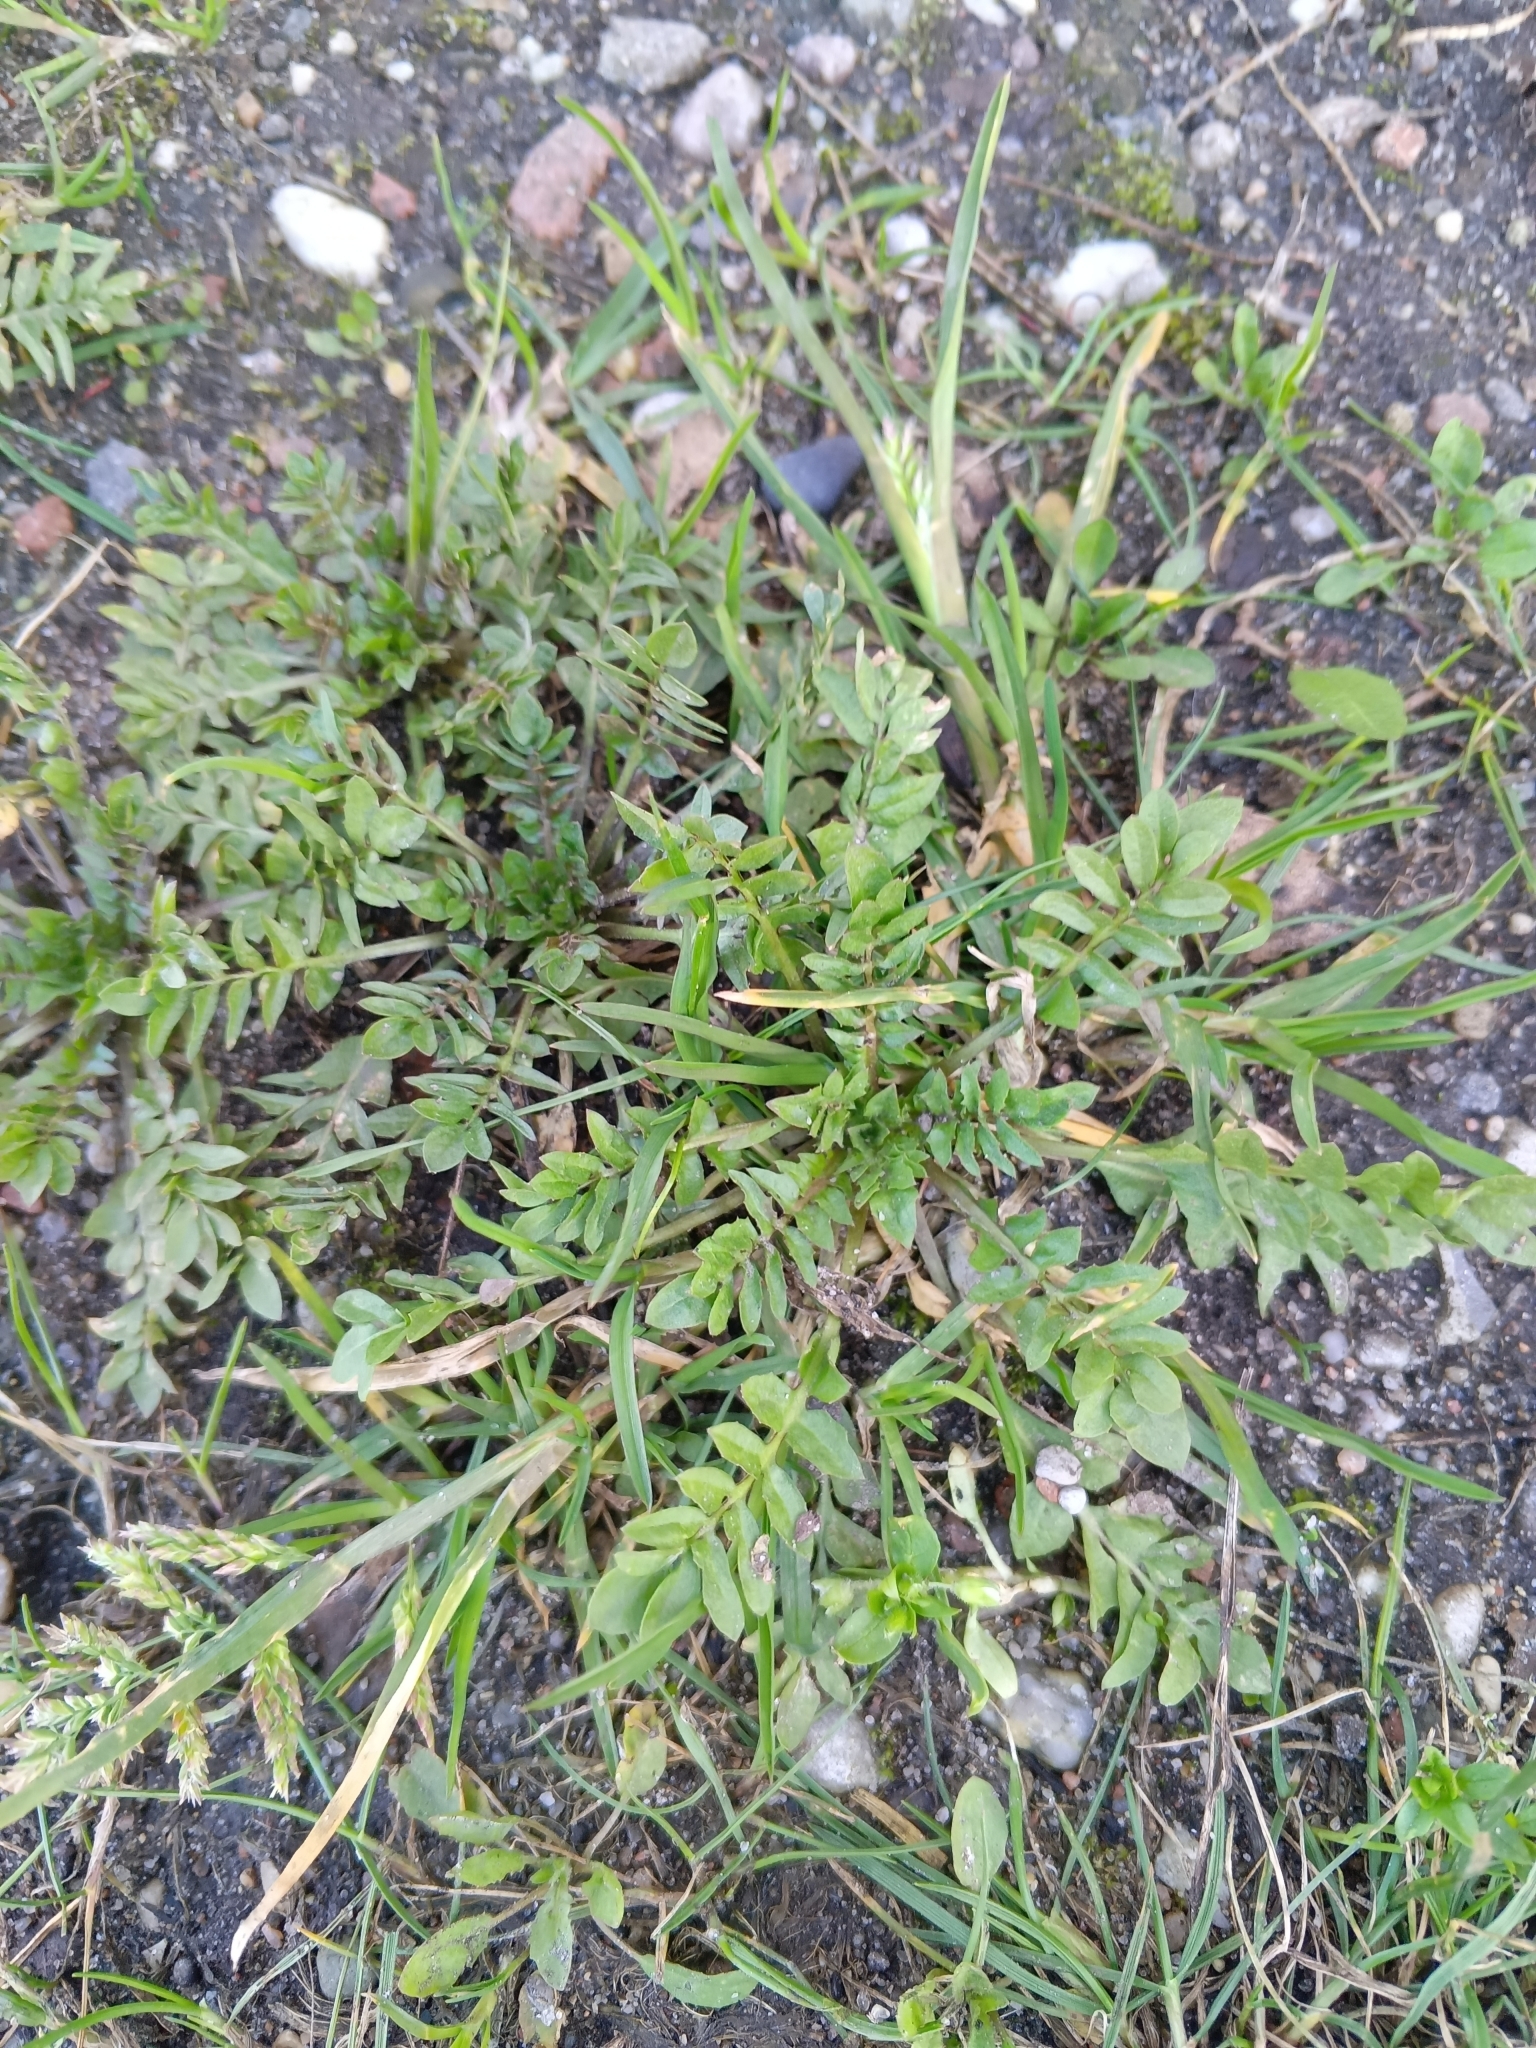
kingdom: Plantae
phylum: Tracheophyta
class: Magnoliopsida
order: Brassicales
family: Brassicaceae
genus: Capsella
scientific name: Capsella bursa-pastoris
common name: Shepherd's purse
